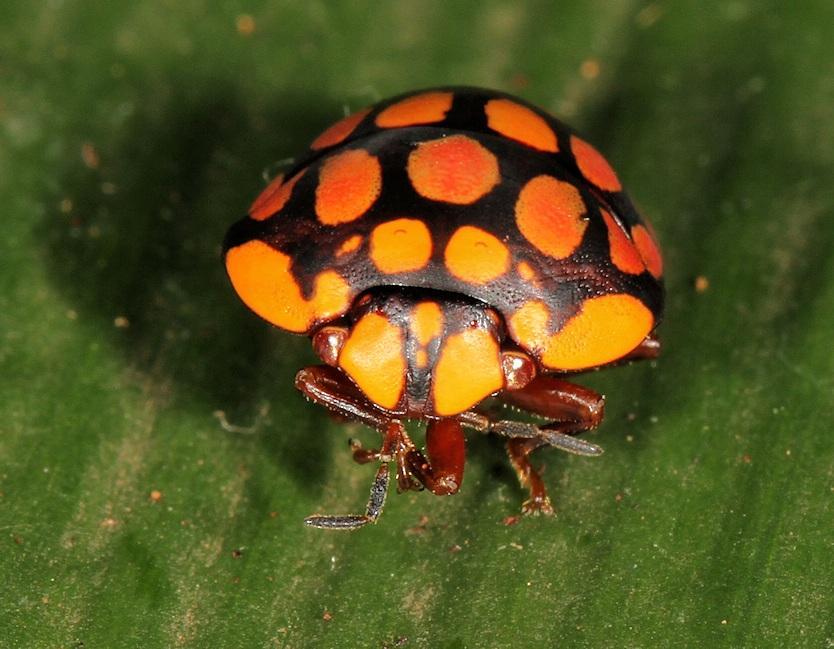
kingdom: Animalia
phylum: Arthropoda
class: Insecta
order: Hemiptera
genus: Steganocerus
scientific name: Steganocerus multipunctatus
